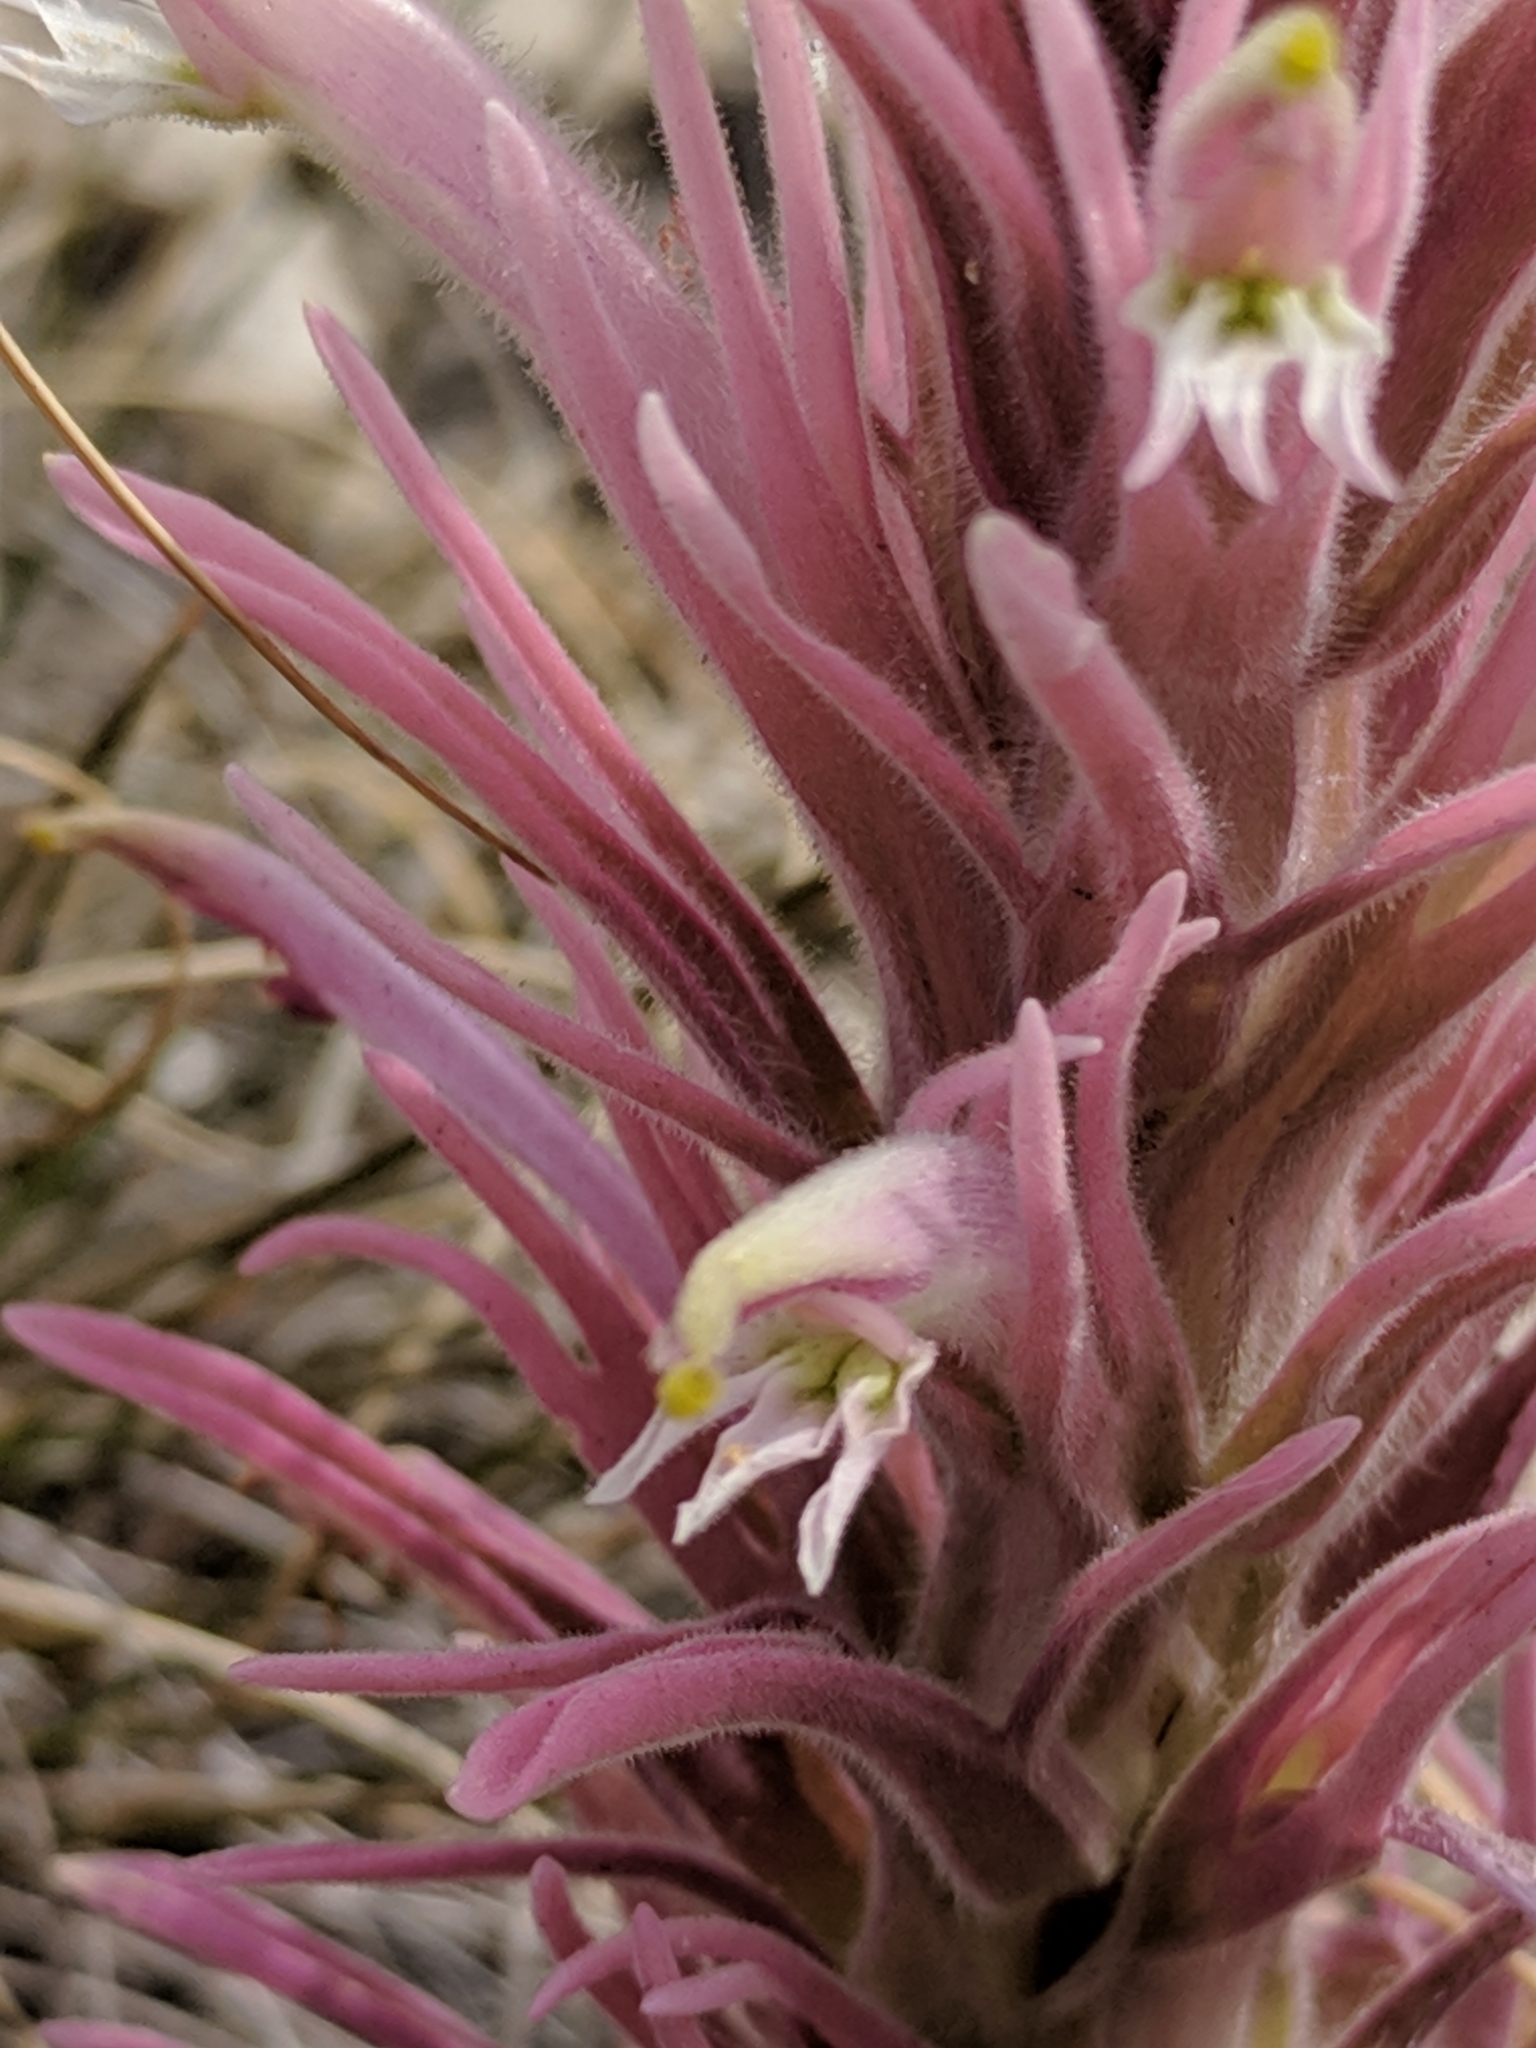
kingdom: Plantae
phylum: Tracheophyta
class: Magnoliopsida
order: Lamiales
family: Orobanchaceae
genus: Castilleja
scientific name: Castilleja sessiliflora
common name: Downy paintbrush
